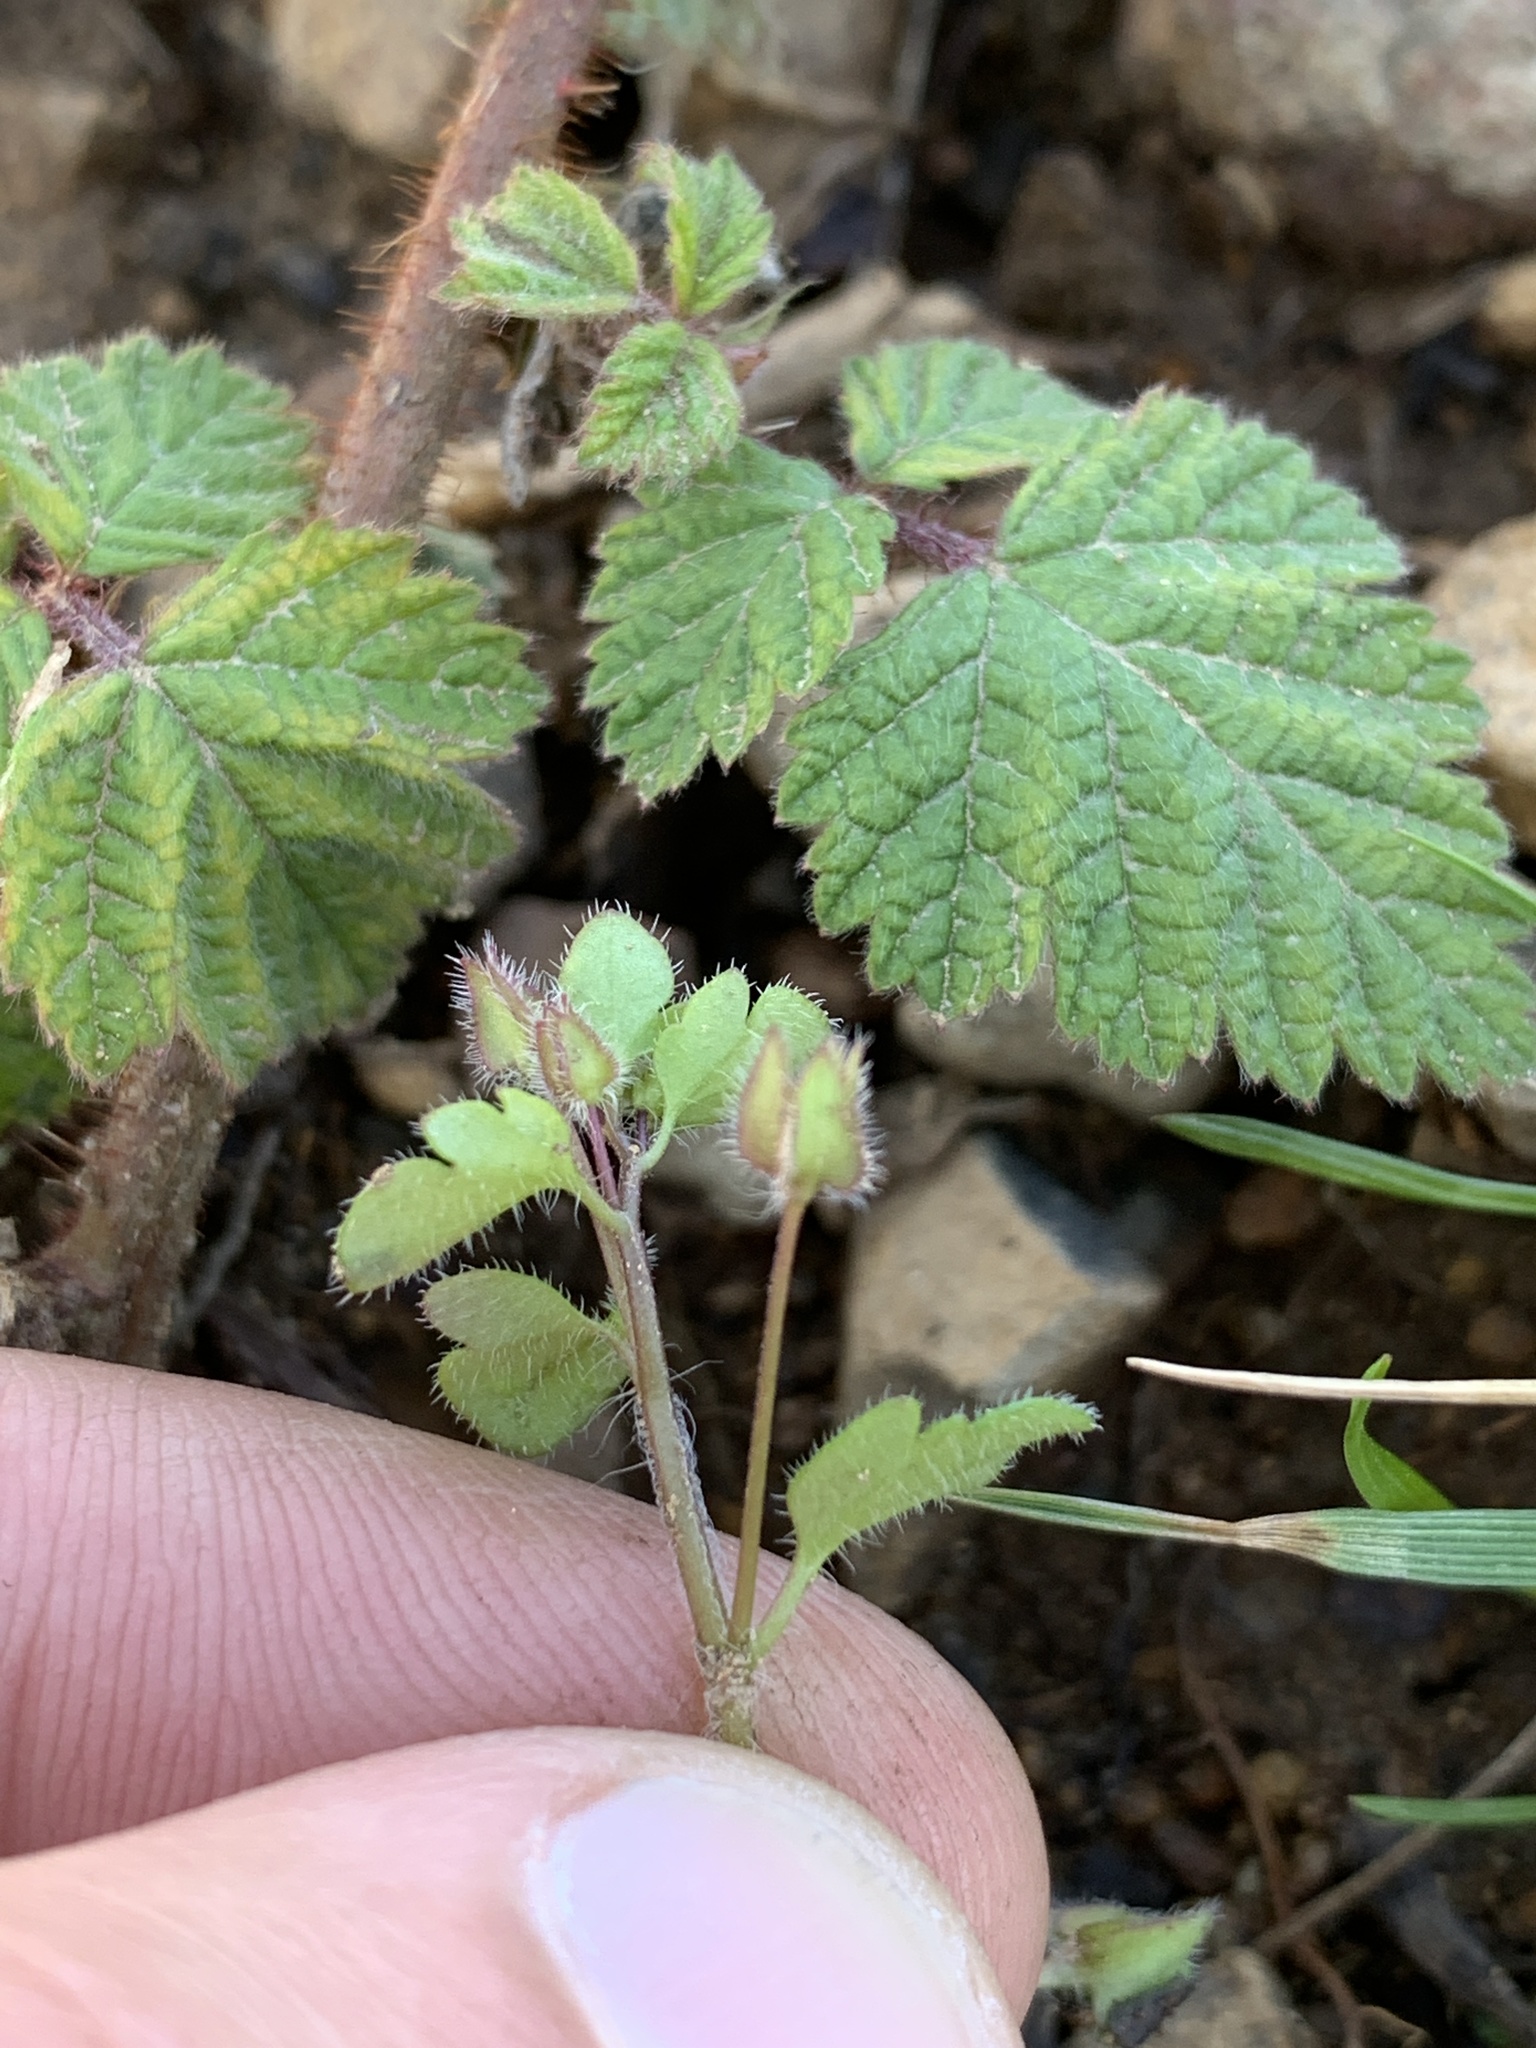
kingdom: Plantae
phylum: Tracheophyta
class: Magnoliopsida
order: Lamiales
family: Plantaginaceae
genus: Veronica
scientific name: Veronica sublobata
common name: False ivy-leaved speedwell
